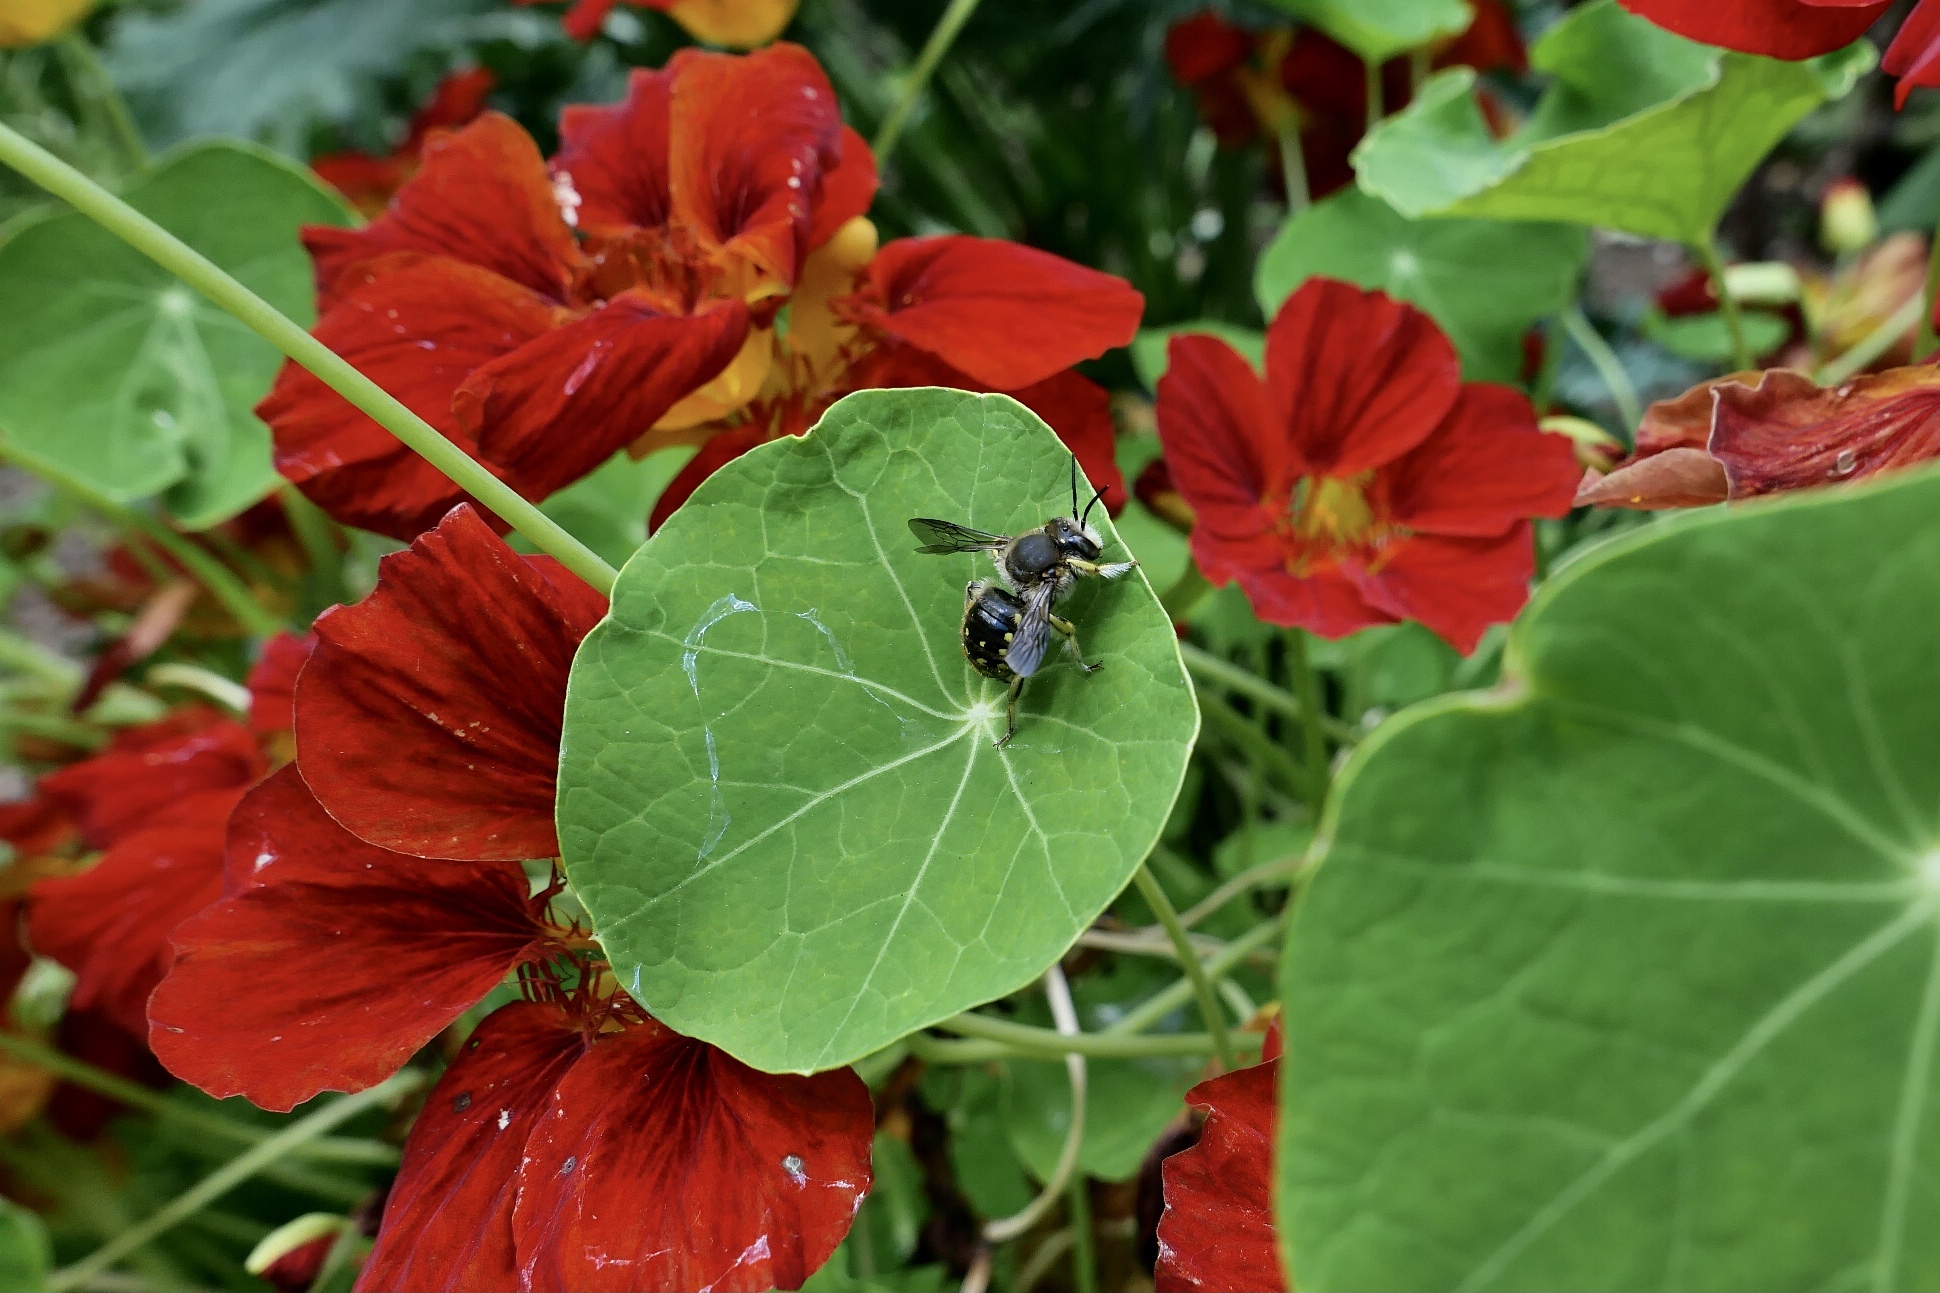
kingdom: Animalia
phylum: Arthropoda
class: Insecta
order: Hymenoptera
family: Megachilidae
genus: Anthidium
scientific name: Anthidium manicatum
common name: Wool carder bee
